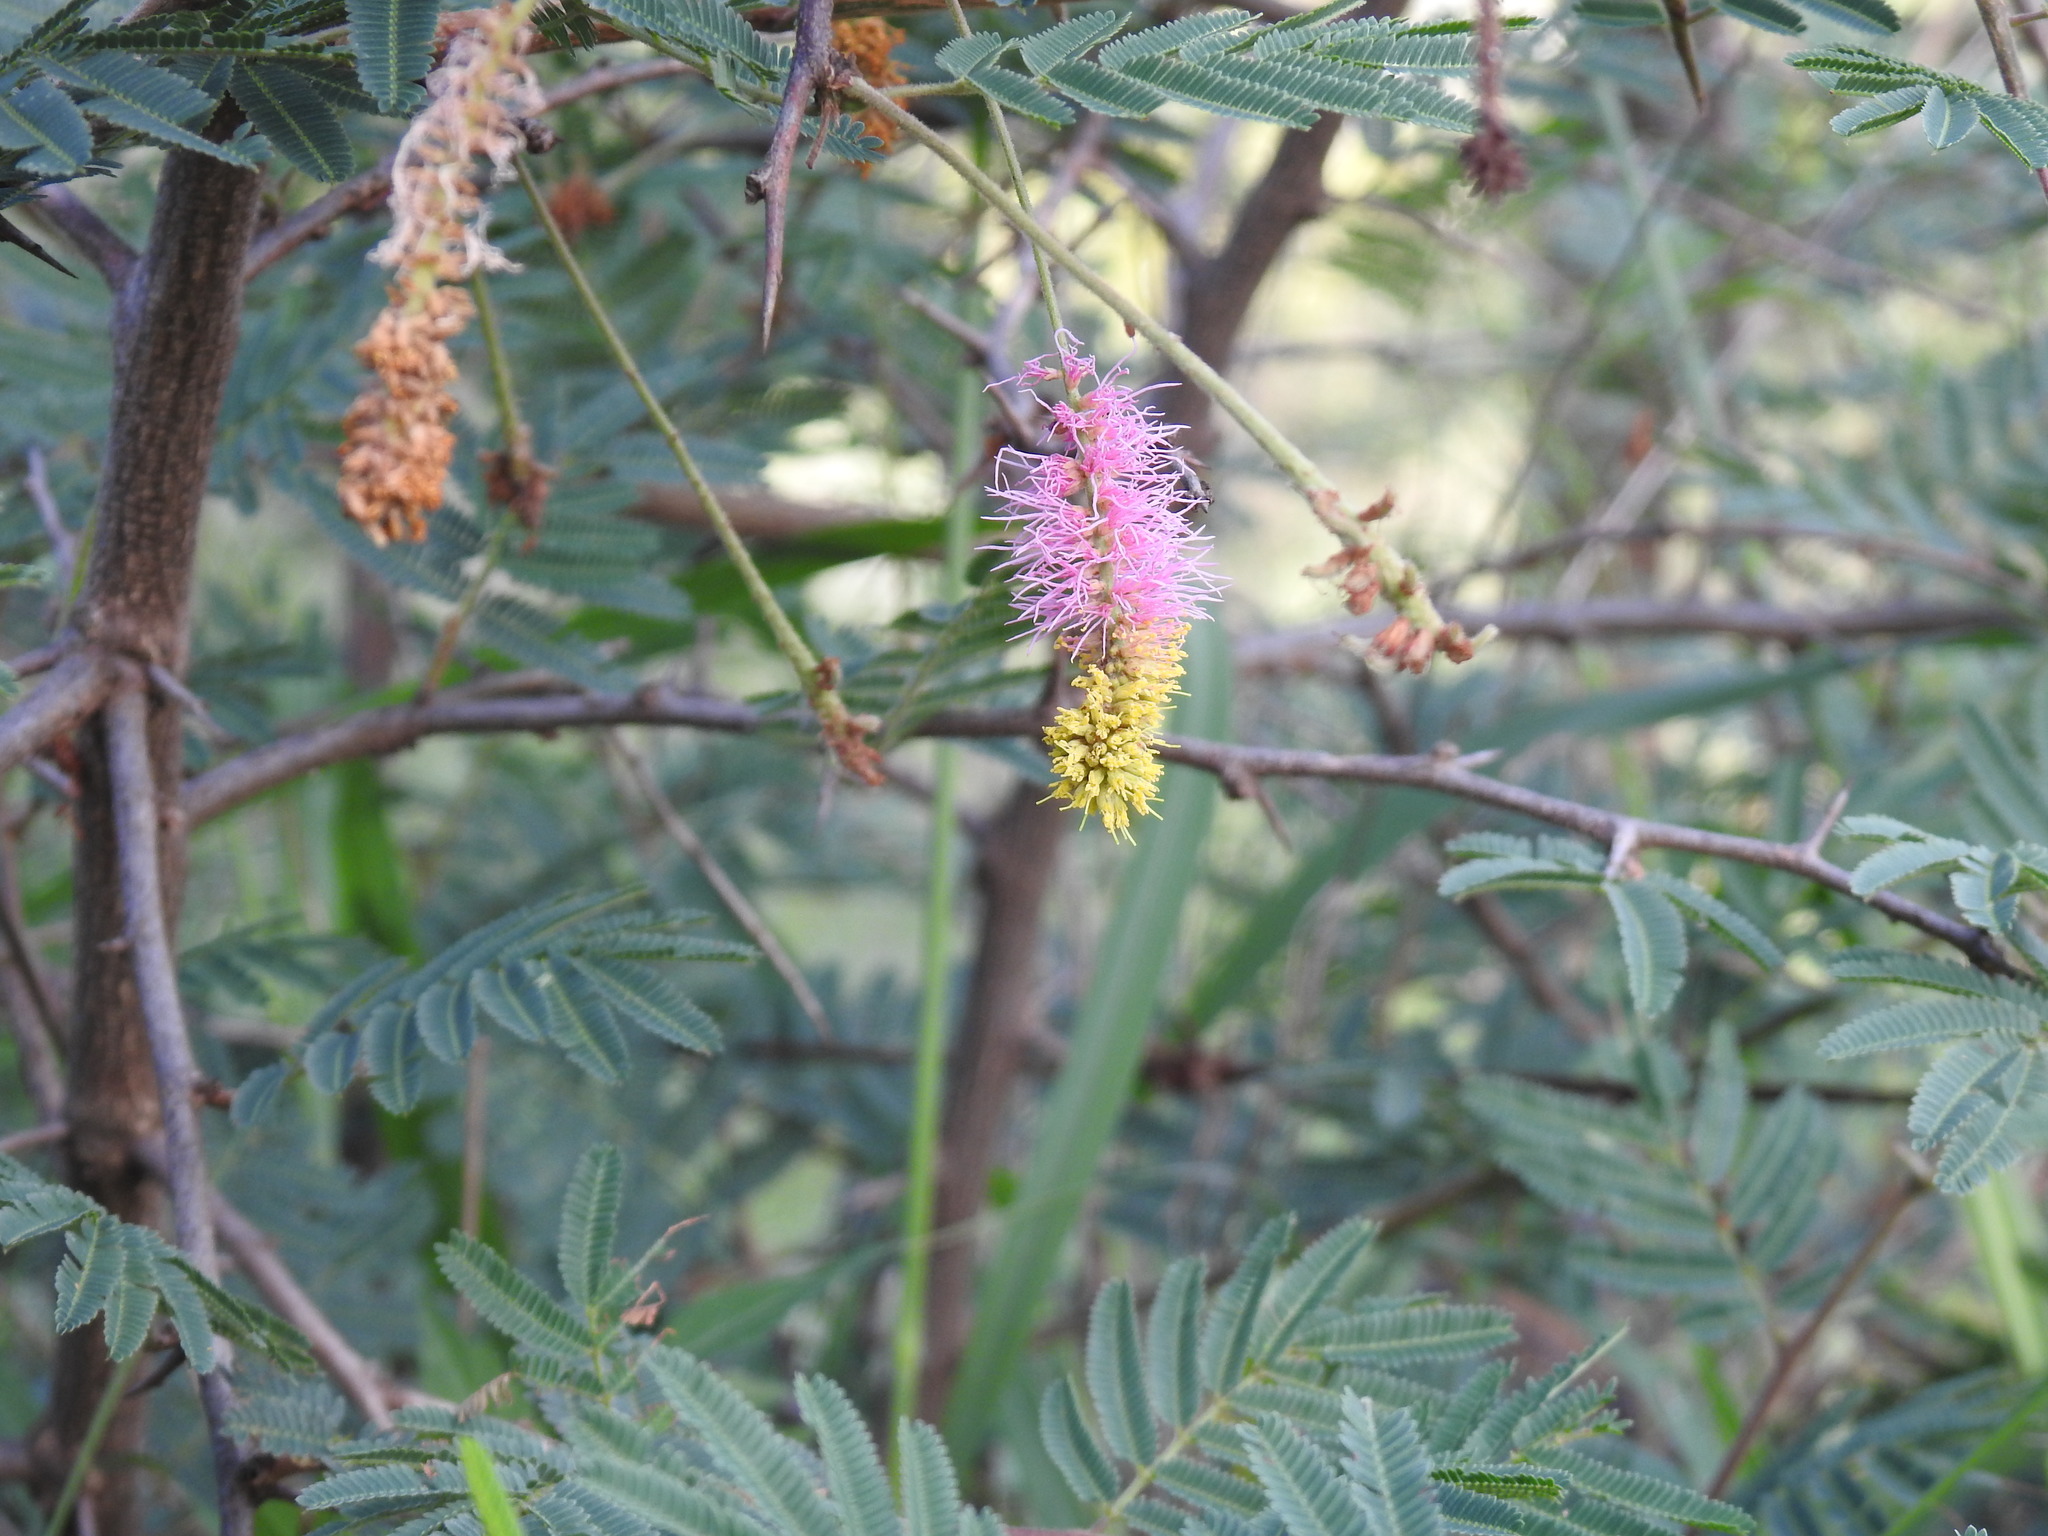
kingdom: Plantae
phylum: Tracheophyta
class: Magnoliopsida
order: Fabales
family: Fabaceae
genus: Dichrostachys
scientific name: Dichrostachys cinerea
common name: Sicklebush
